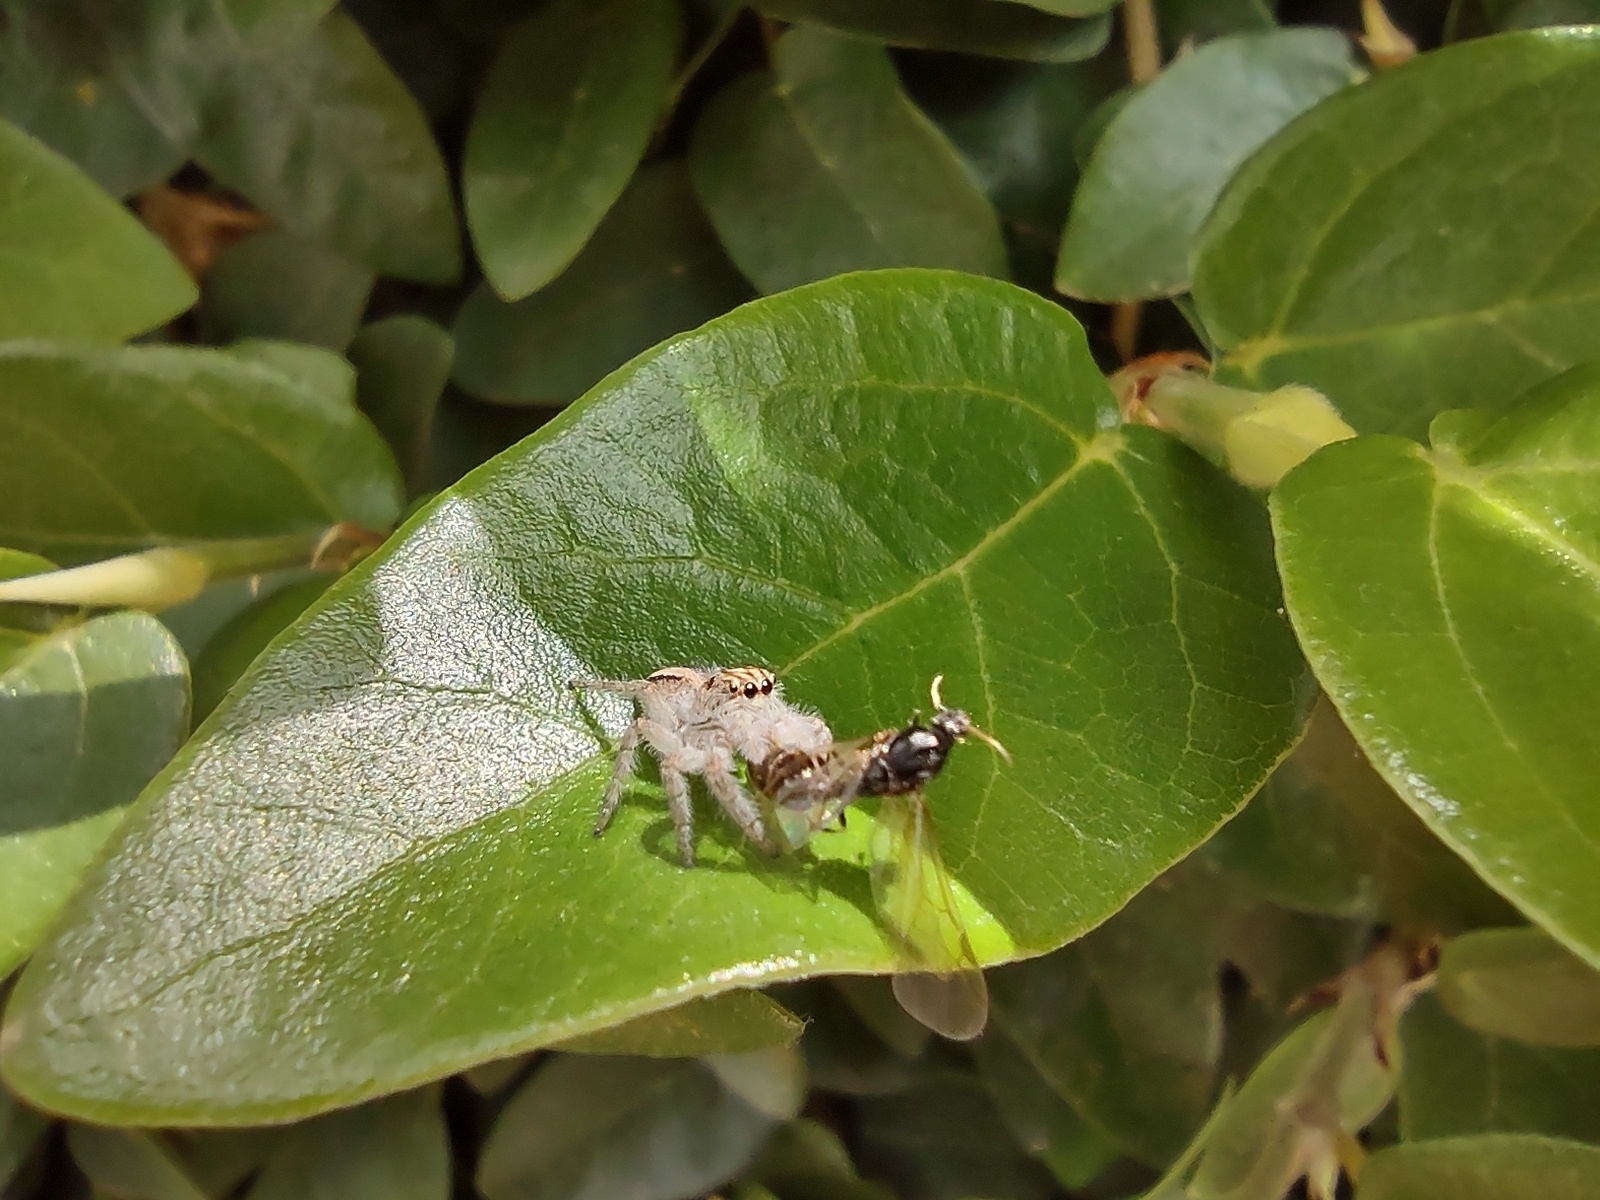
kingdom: Animalia
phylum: Arthropoda
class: Arachnida
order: Araneae
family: Salticidae
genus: Megafreya
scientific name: Megafreya sutrix
